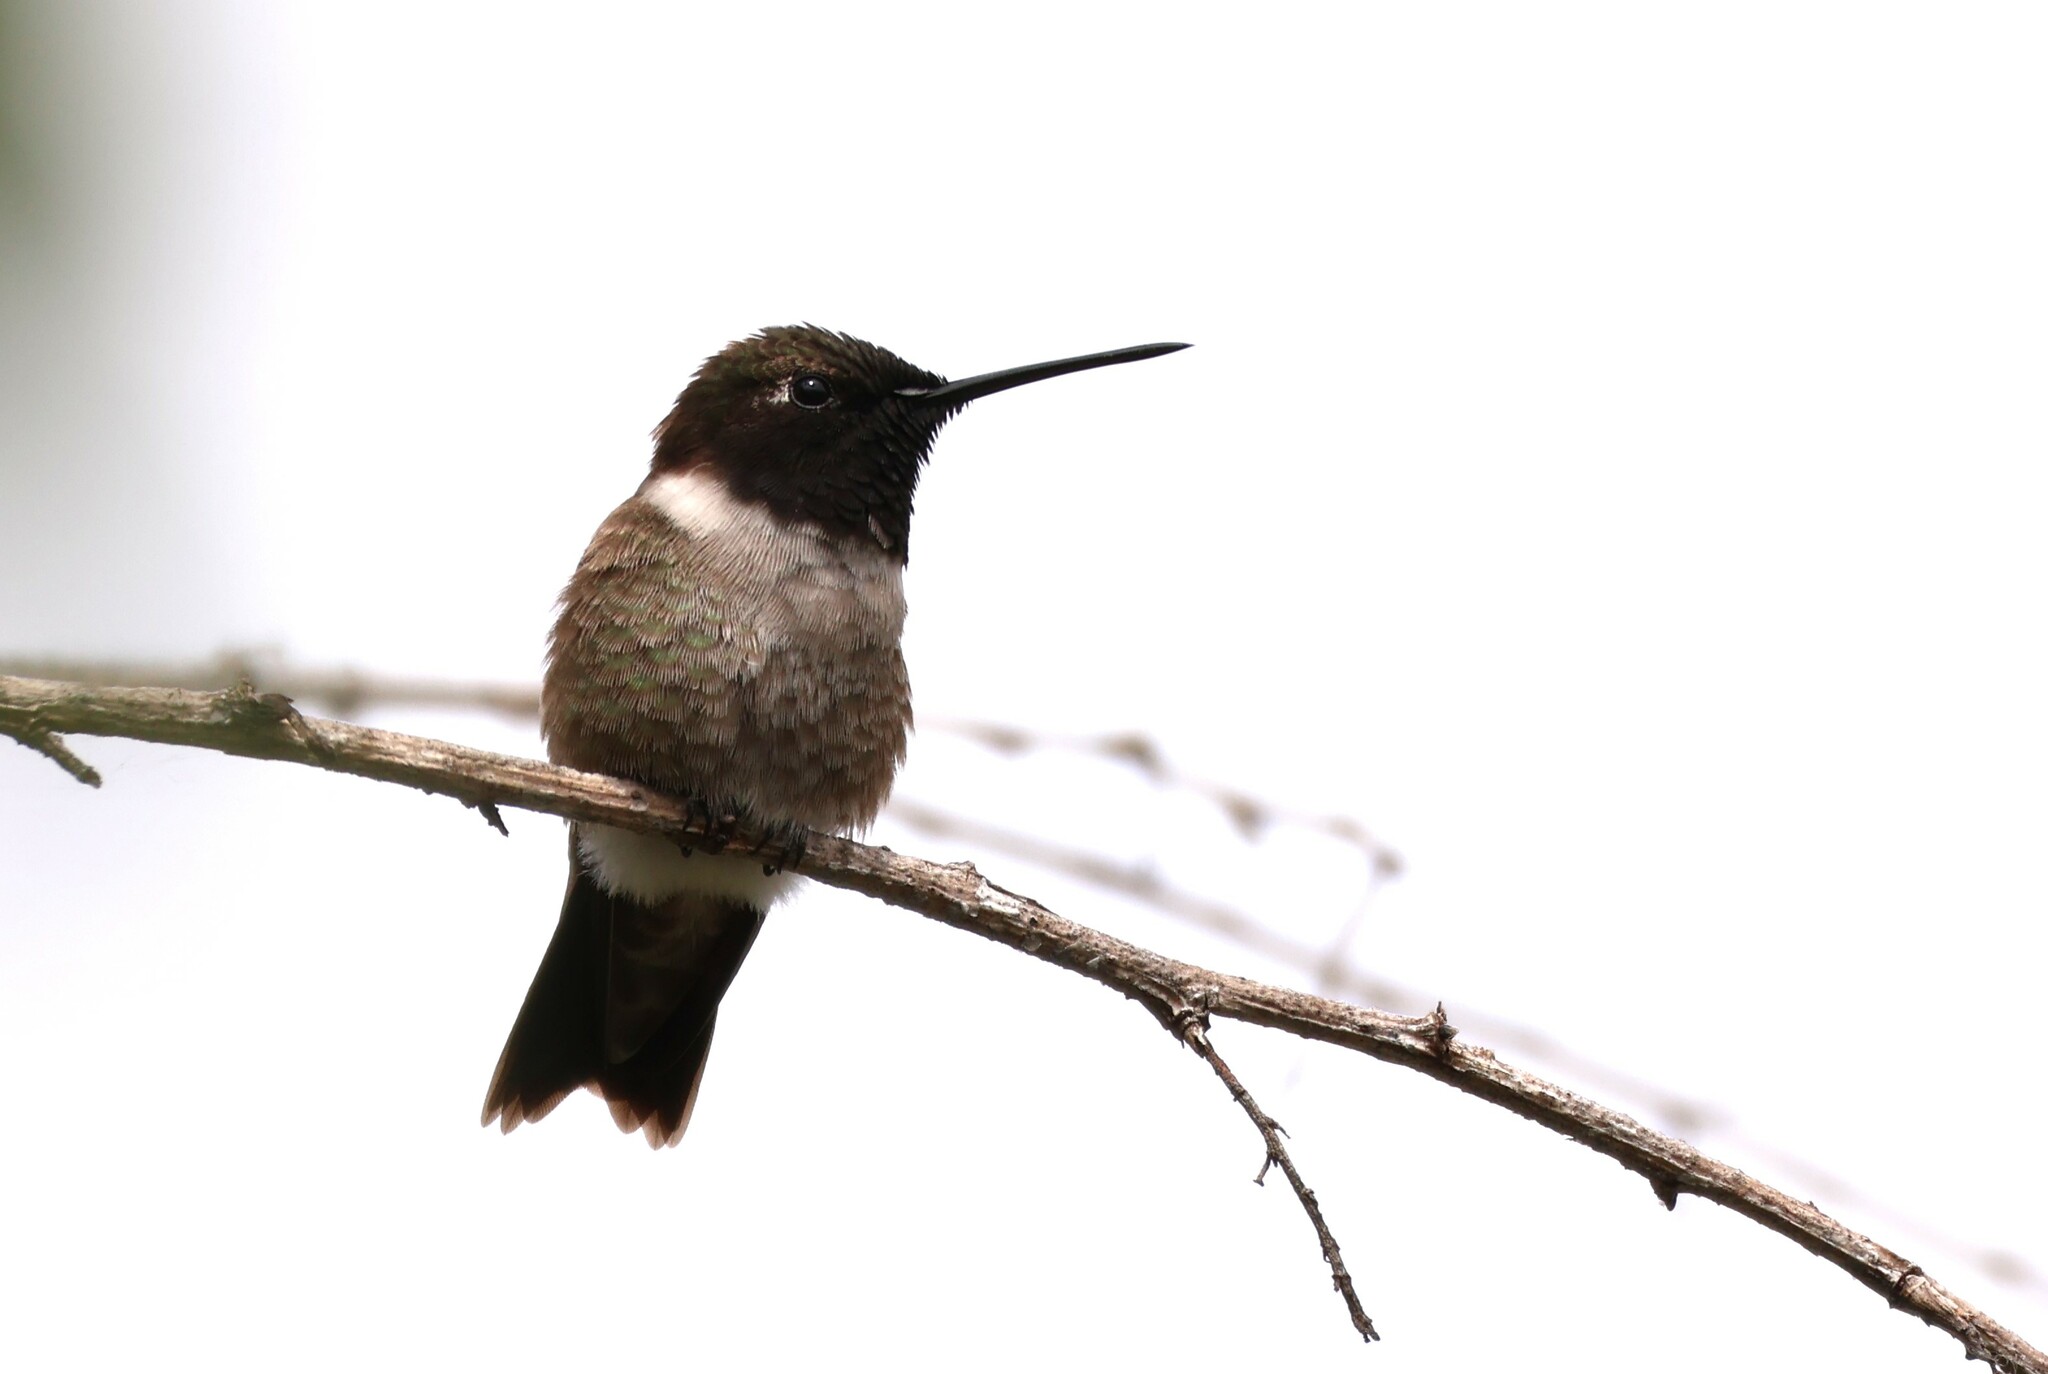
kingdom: Animalia
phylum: Chordata
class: Aves
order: Apodiformes
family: Trochilidae
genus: Archilochus
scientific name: Archilochus alexandri
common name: Black-chinned hummingbird
